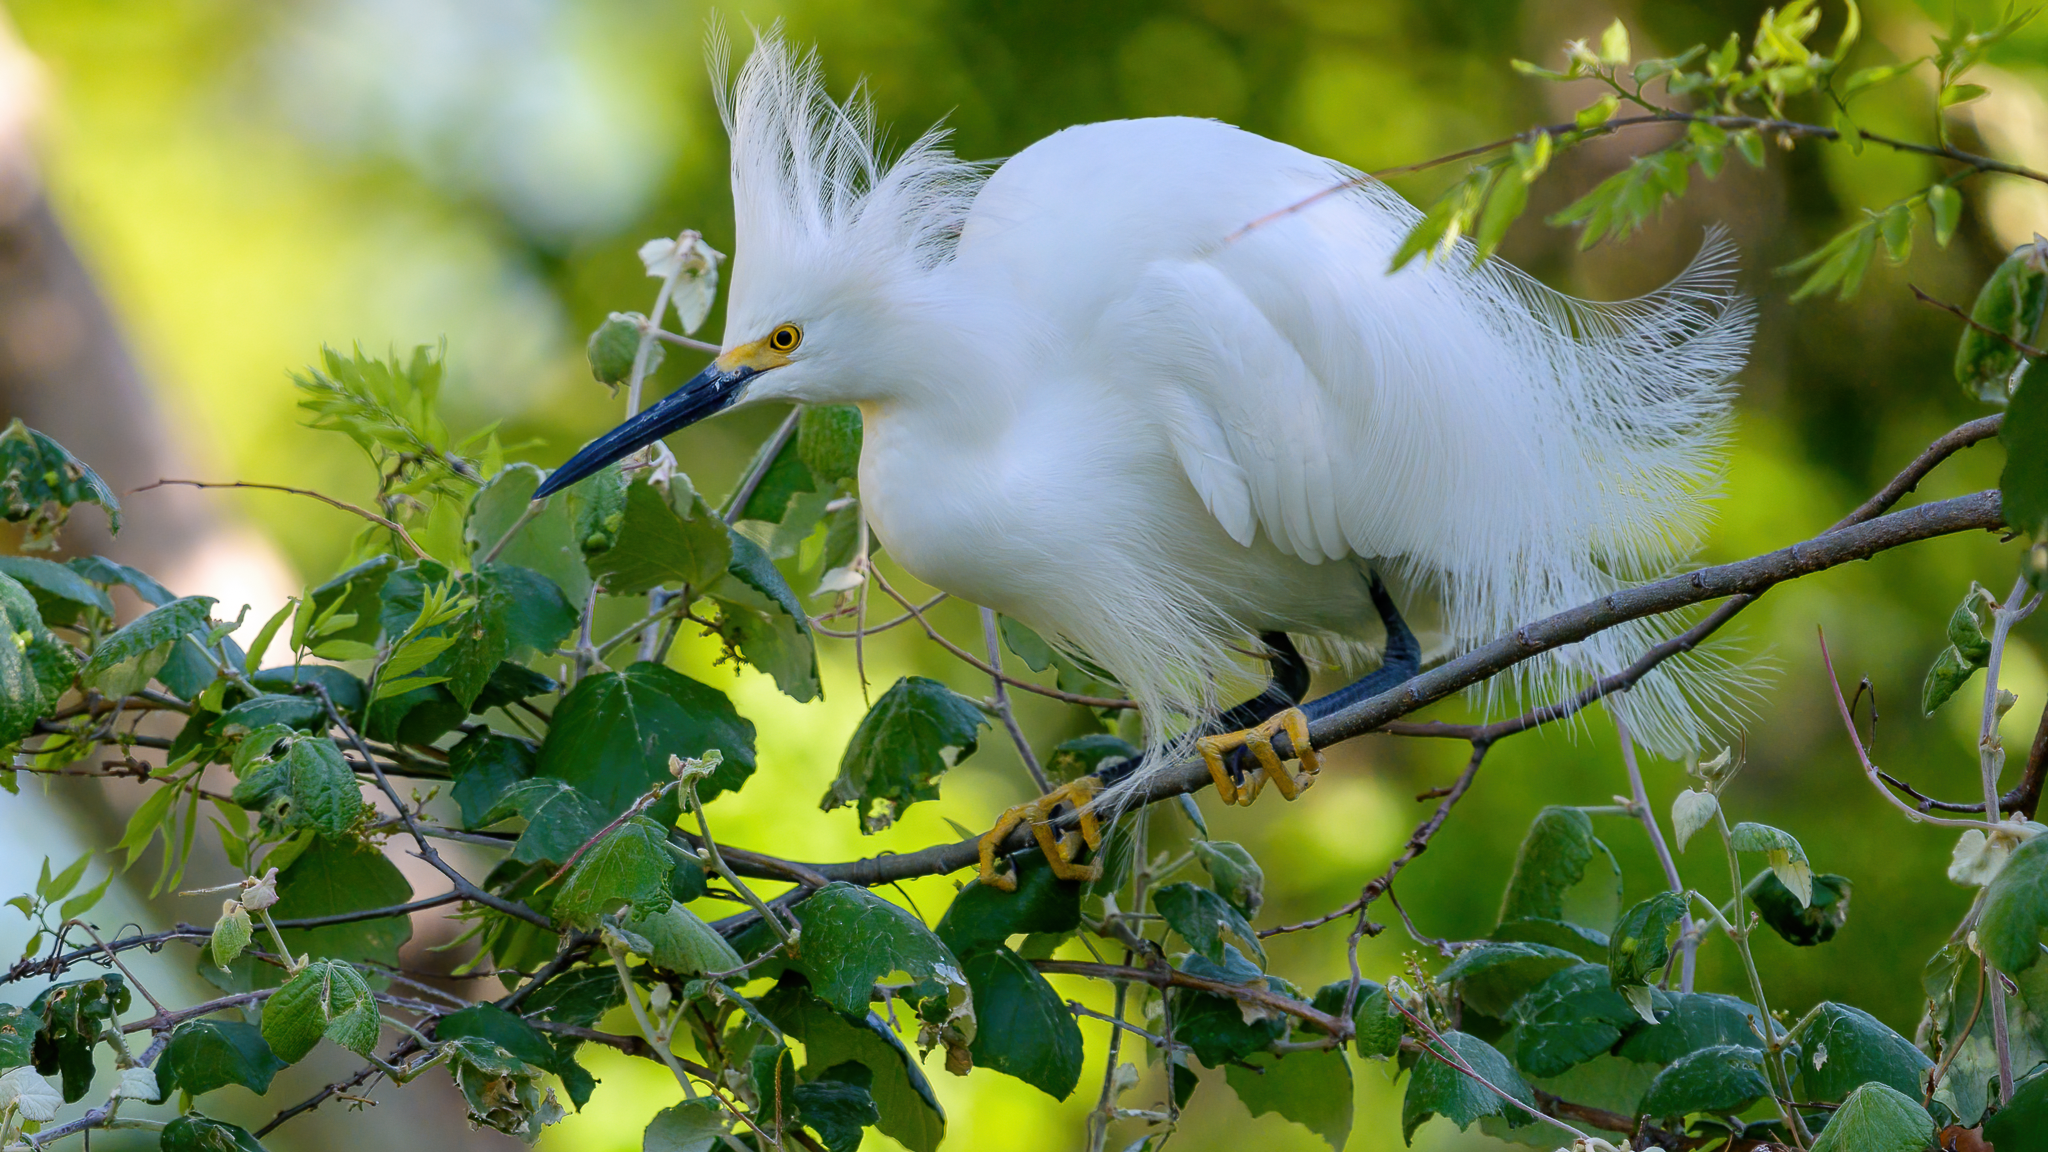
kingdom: Animalia
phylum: Chordata
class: Aves
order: Pelecaniformes
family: Ardeidae
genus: Egretta
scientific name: Egretta thula
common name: Snowy egret
